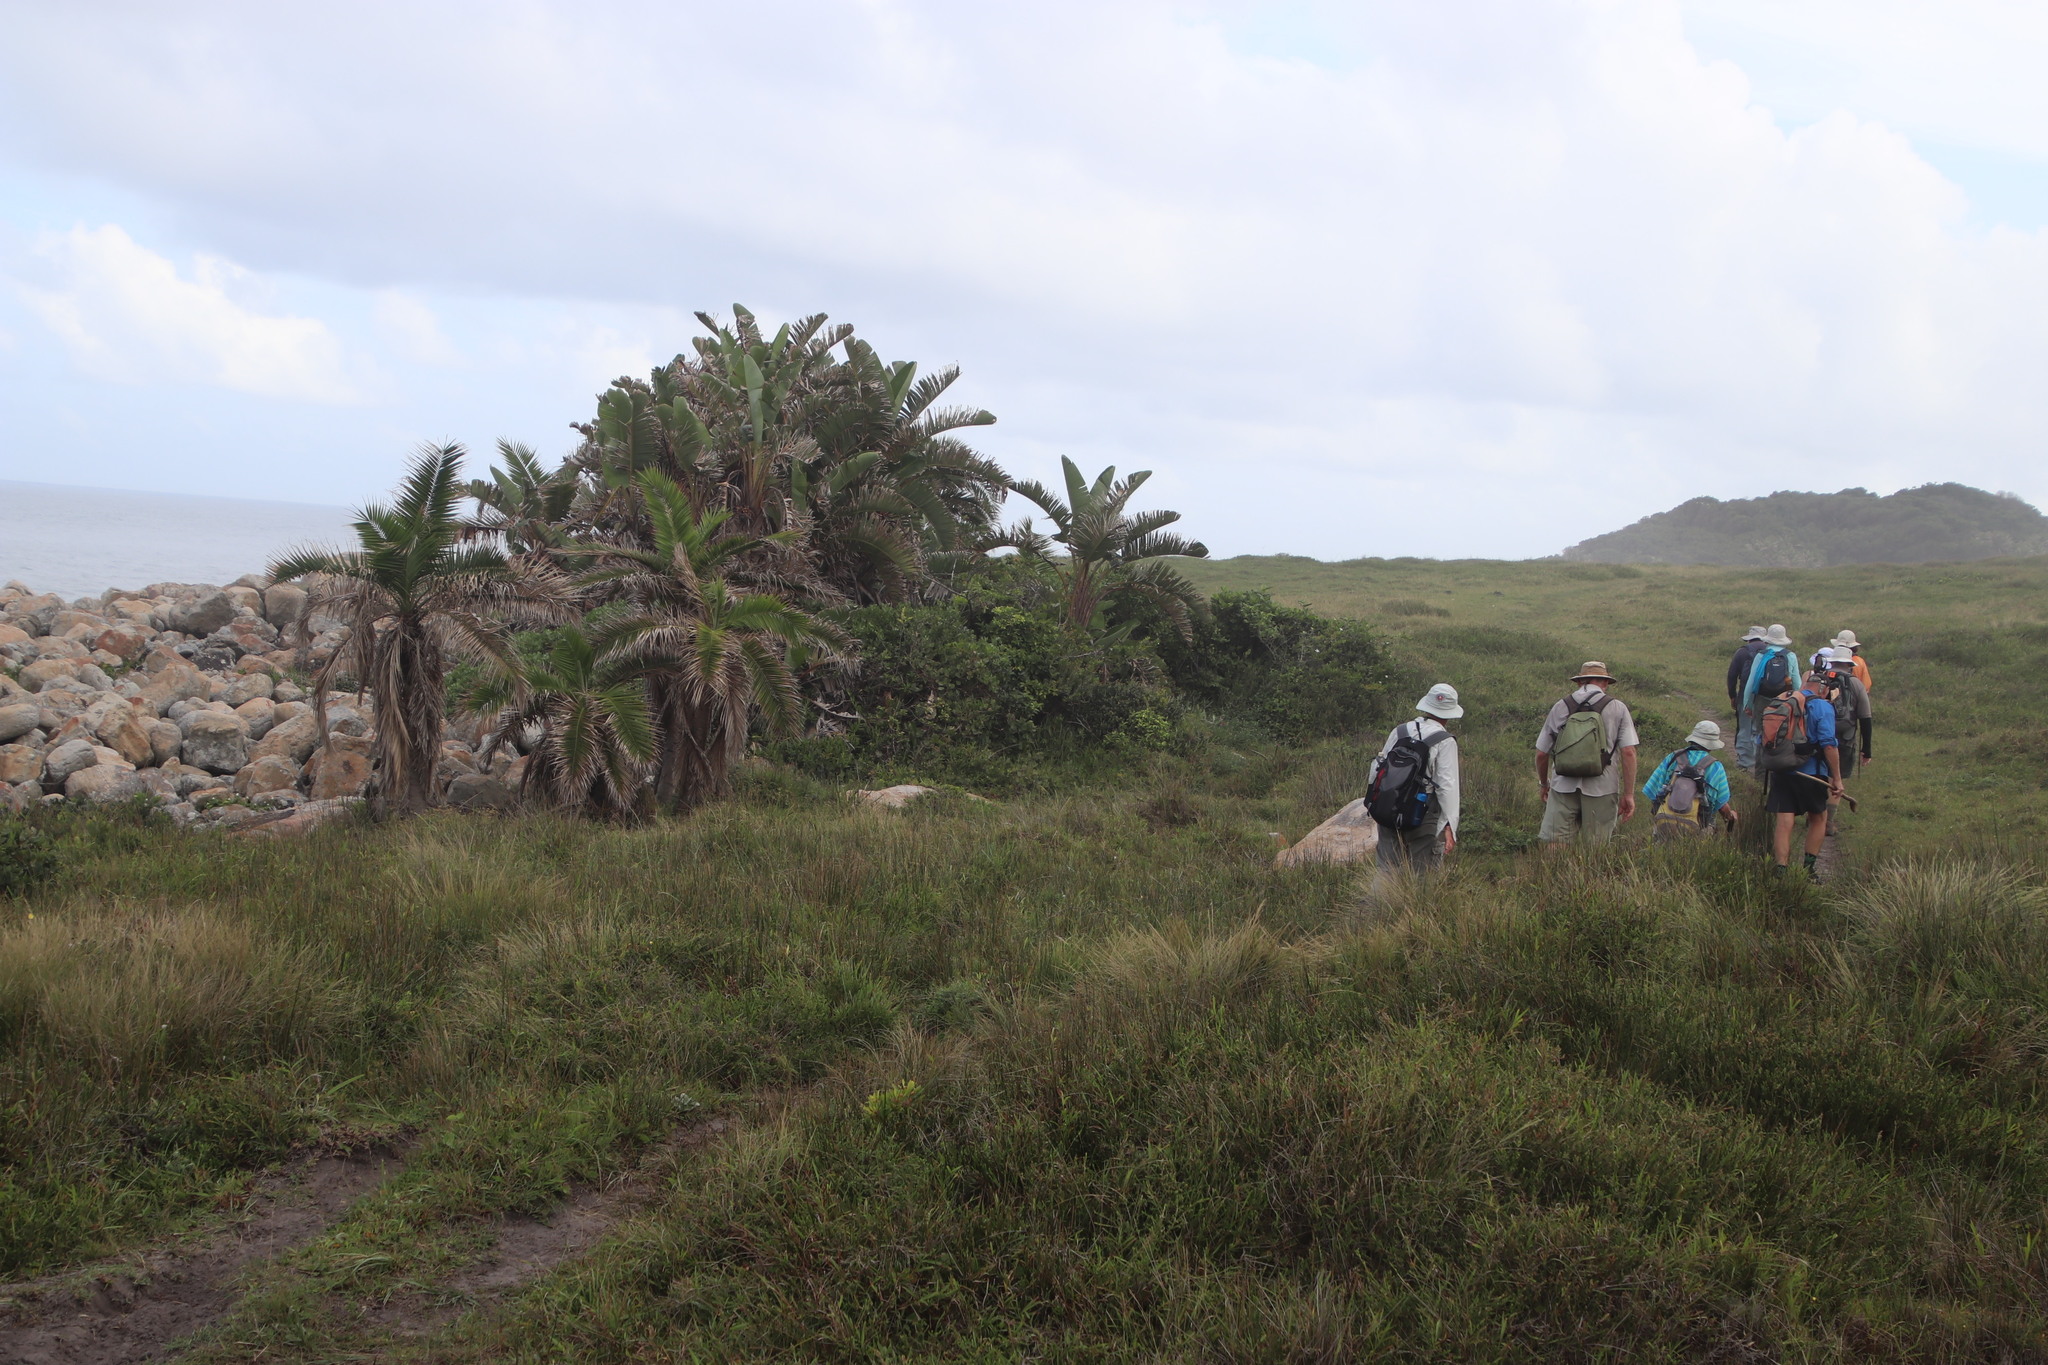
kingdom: Plantae
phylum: Tracheophyta
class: Liliopsida
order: Arecales
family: Arecaceae
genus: Phoenix
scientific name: Phoenix reclinata
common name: Senegal date palm
